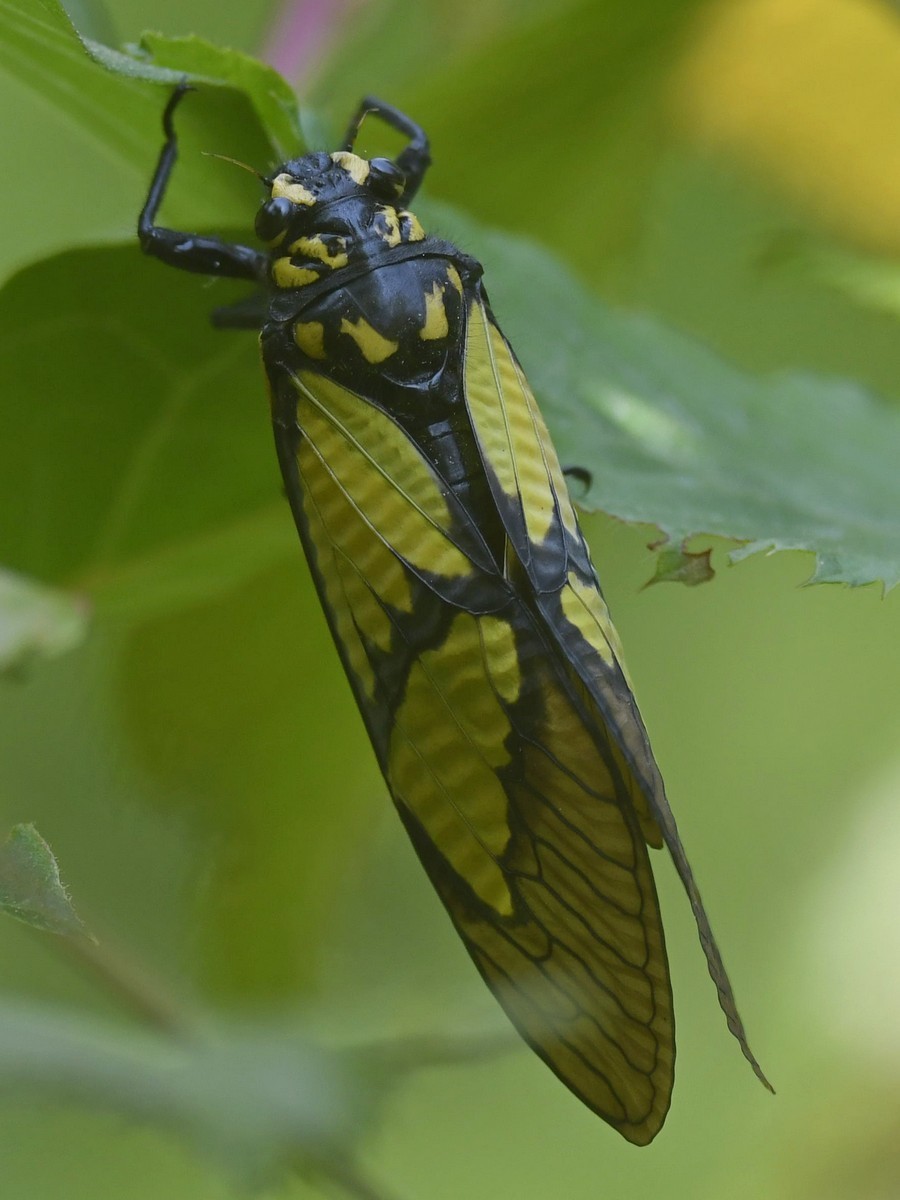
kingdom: Animalia
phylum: Arthropoda
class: Insecta
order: Hemiptera
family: Cicadidae
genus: Sulphogaeana
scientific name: Sulphogaeana sulphurea
